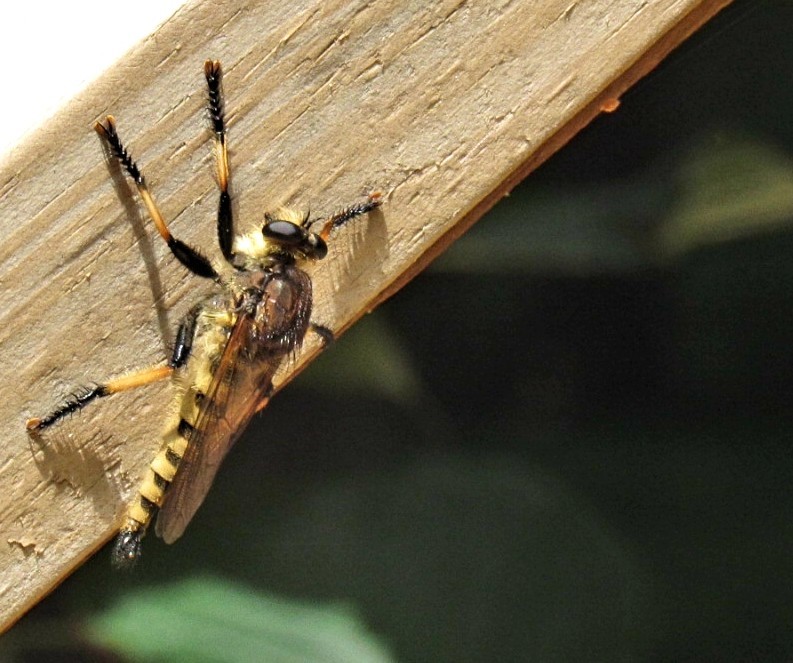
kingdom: Animalia
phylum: Arthropoda
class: Insecta
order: Diptera
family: Asilidae
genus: Promachus
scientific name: Promachus rufipes
